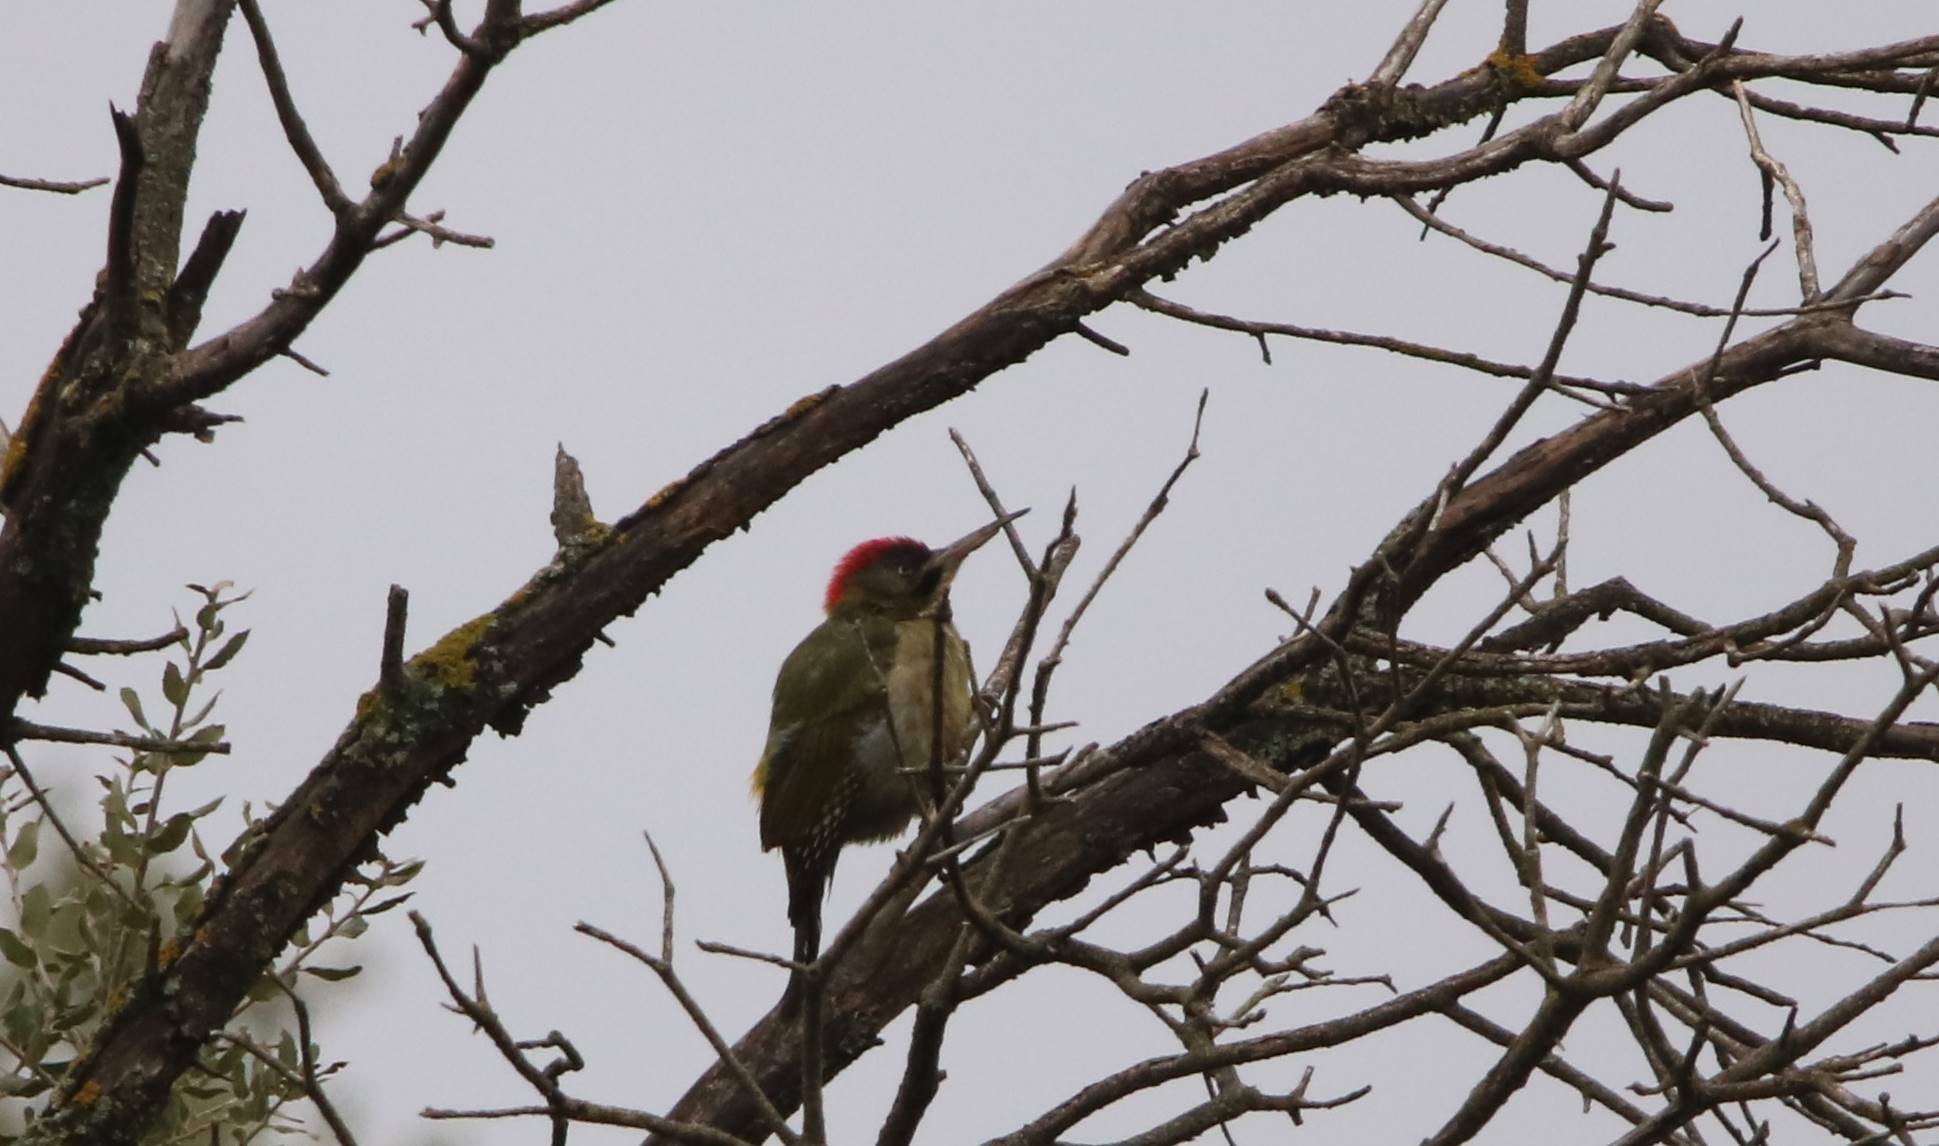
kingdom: Animalia
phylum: Chordata
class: Aves
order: Piciformes
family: Picidae
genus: Picus
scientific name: Picus vaillantii
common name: Levaillant's woodpecker
